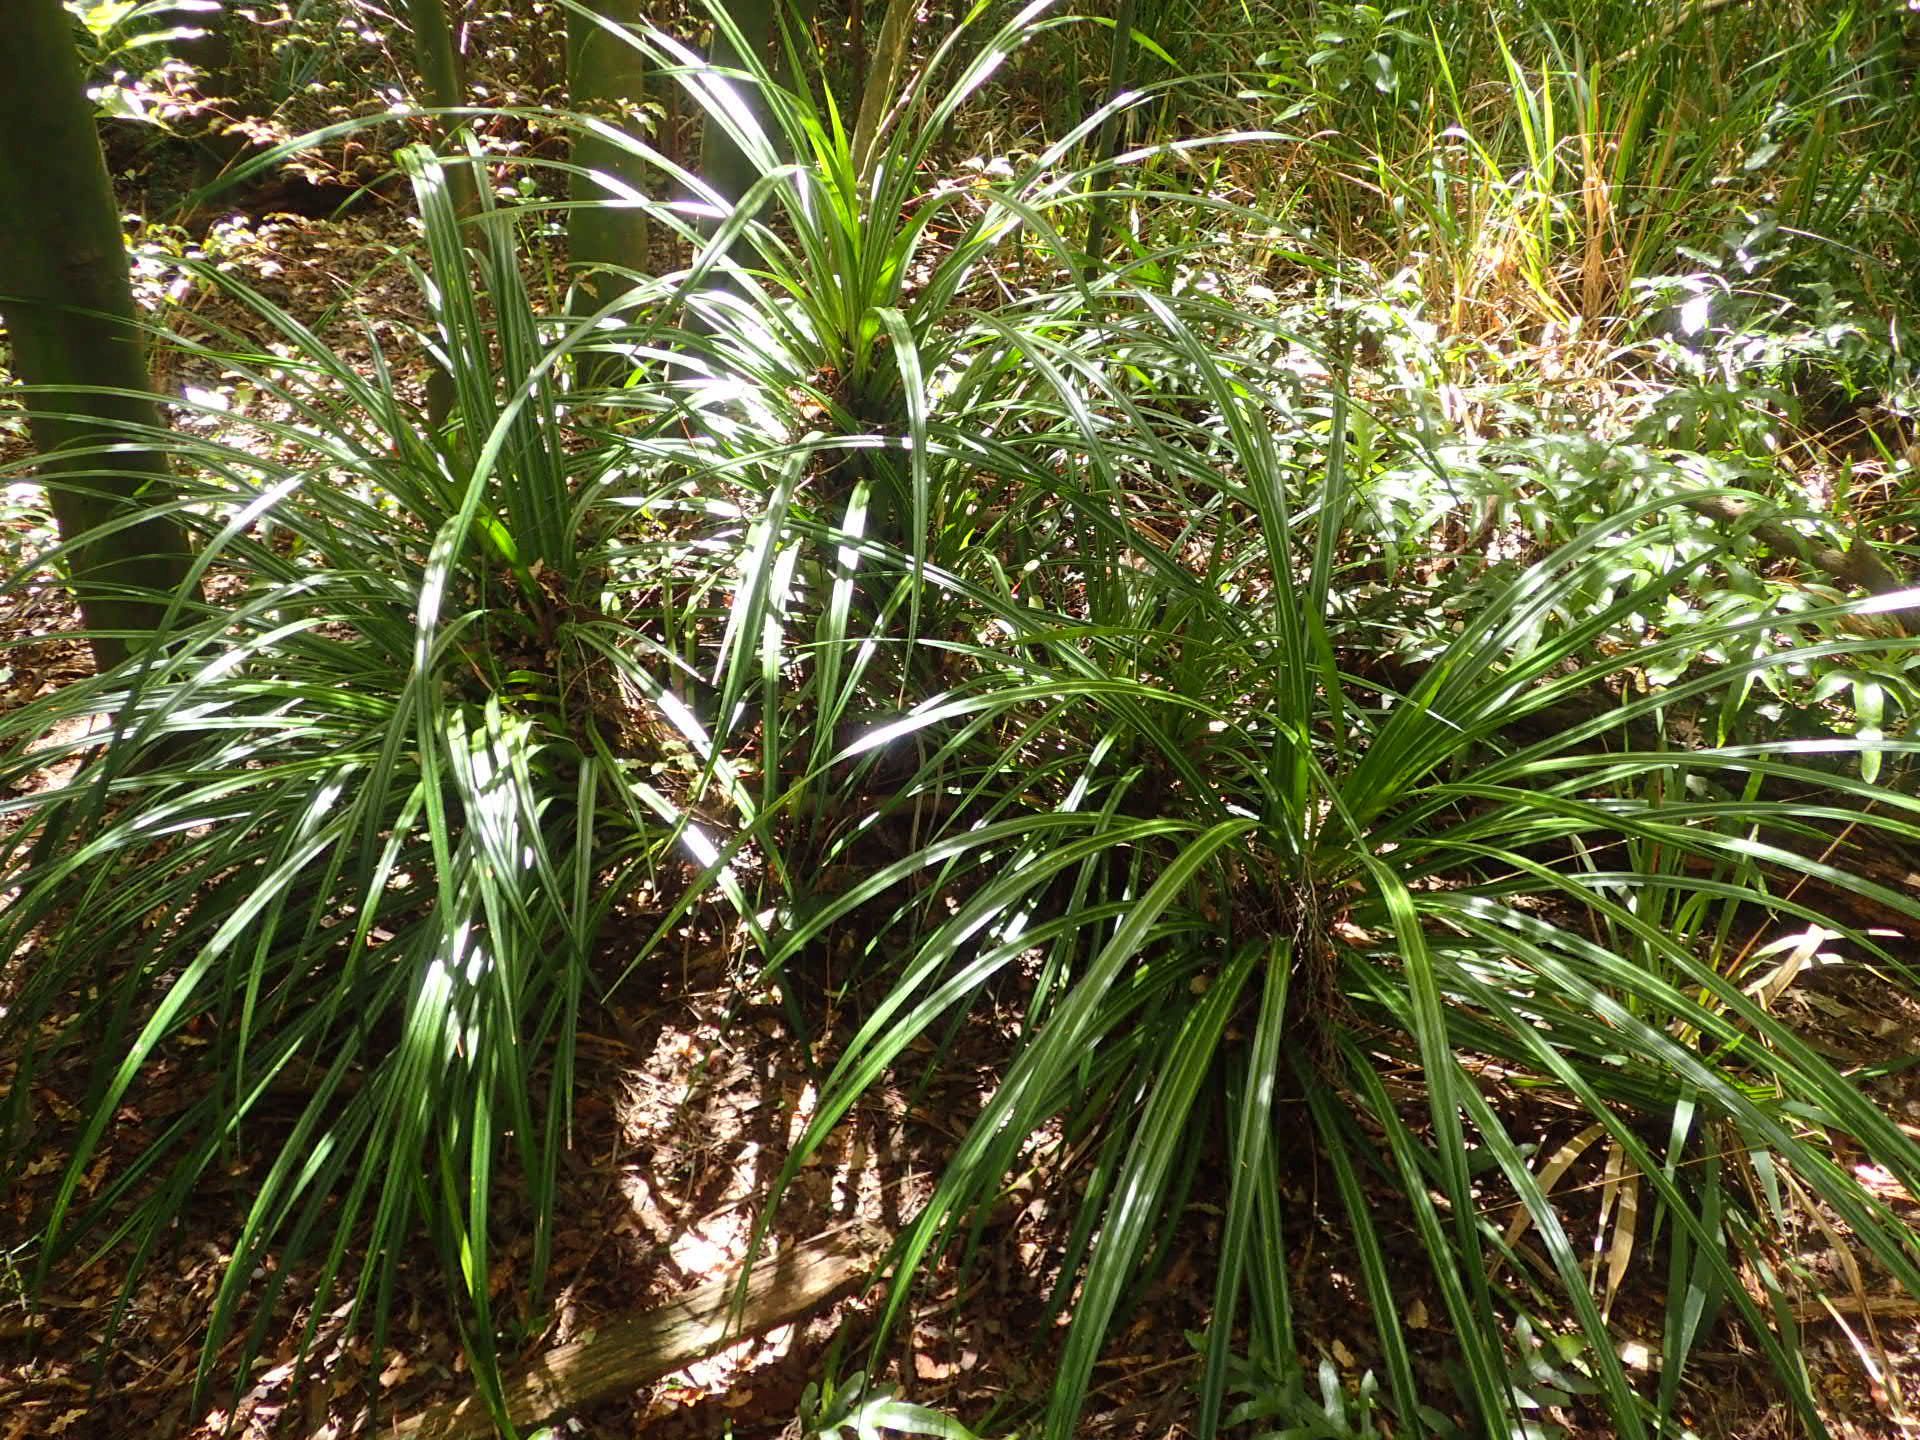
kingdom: Plantae
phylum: Tracheophyta
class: Liliopsida
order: Pandanales
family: Pandanaceae
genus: Freycinetia
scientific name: Freycinetia banksii
